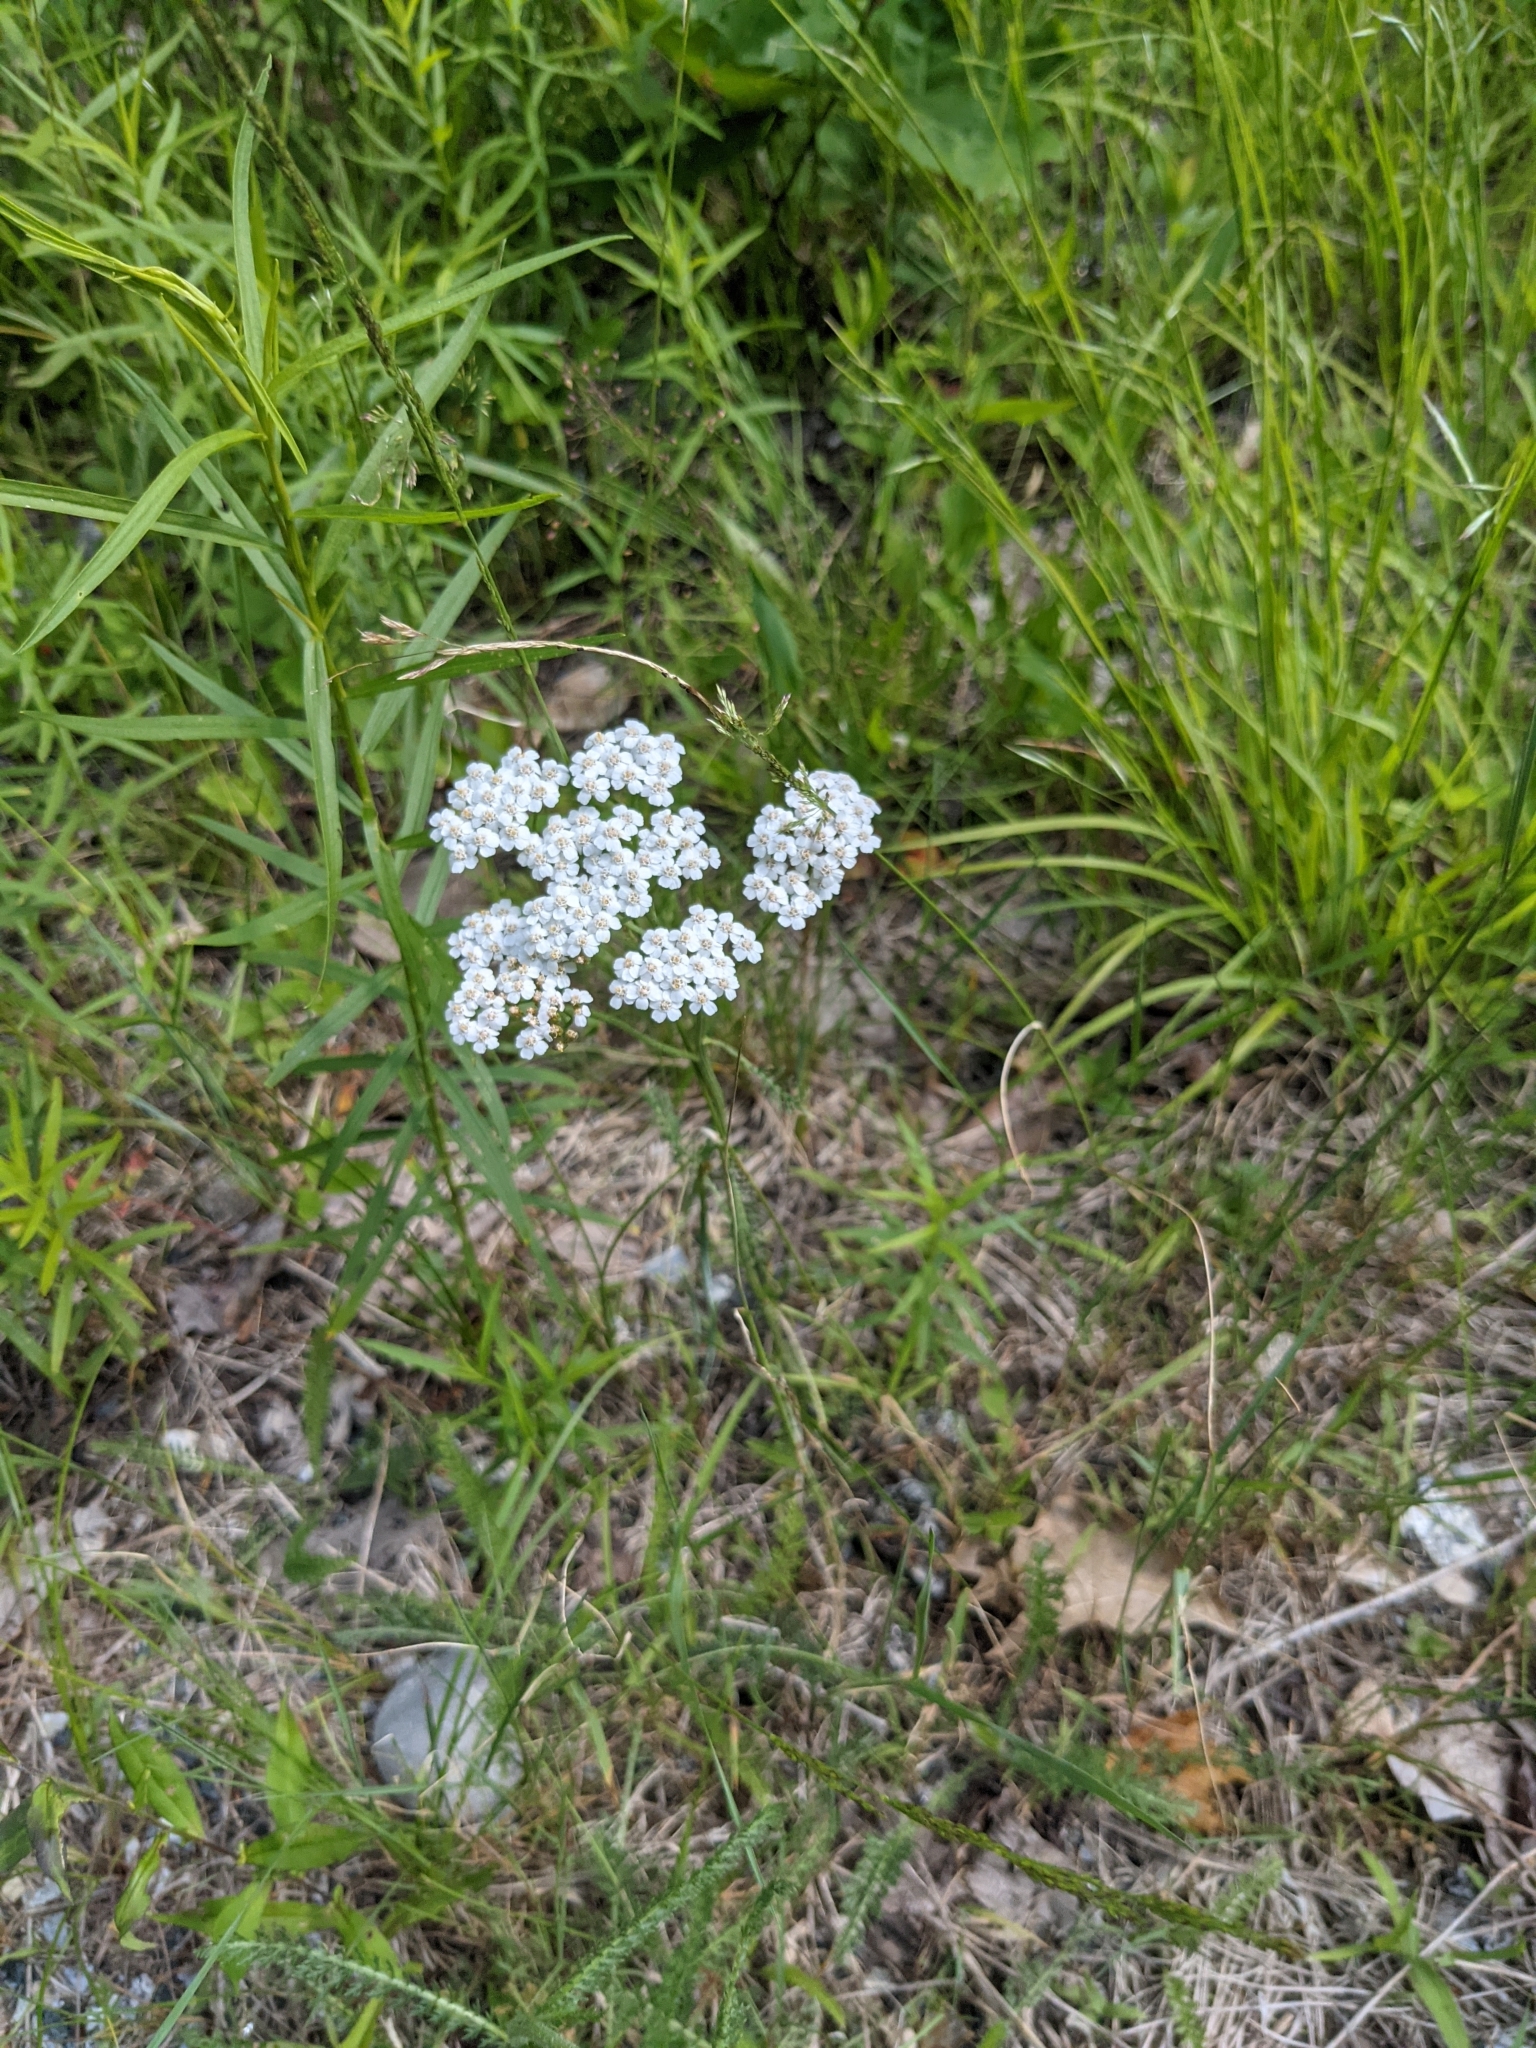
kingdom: Plantae
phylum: Tracheophyta
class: Magnoliopsida
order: Asterales
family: Asteraceae
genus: Achillea
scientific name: Achillea millefolium
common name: Yarrow
